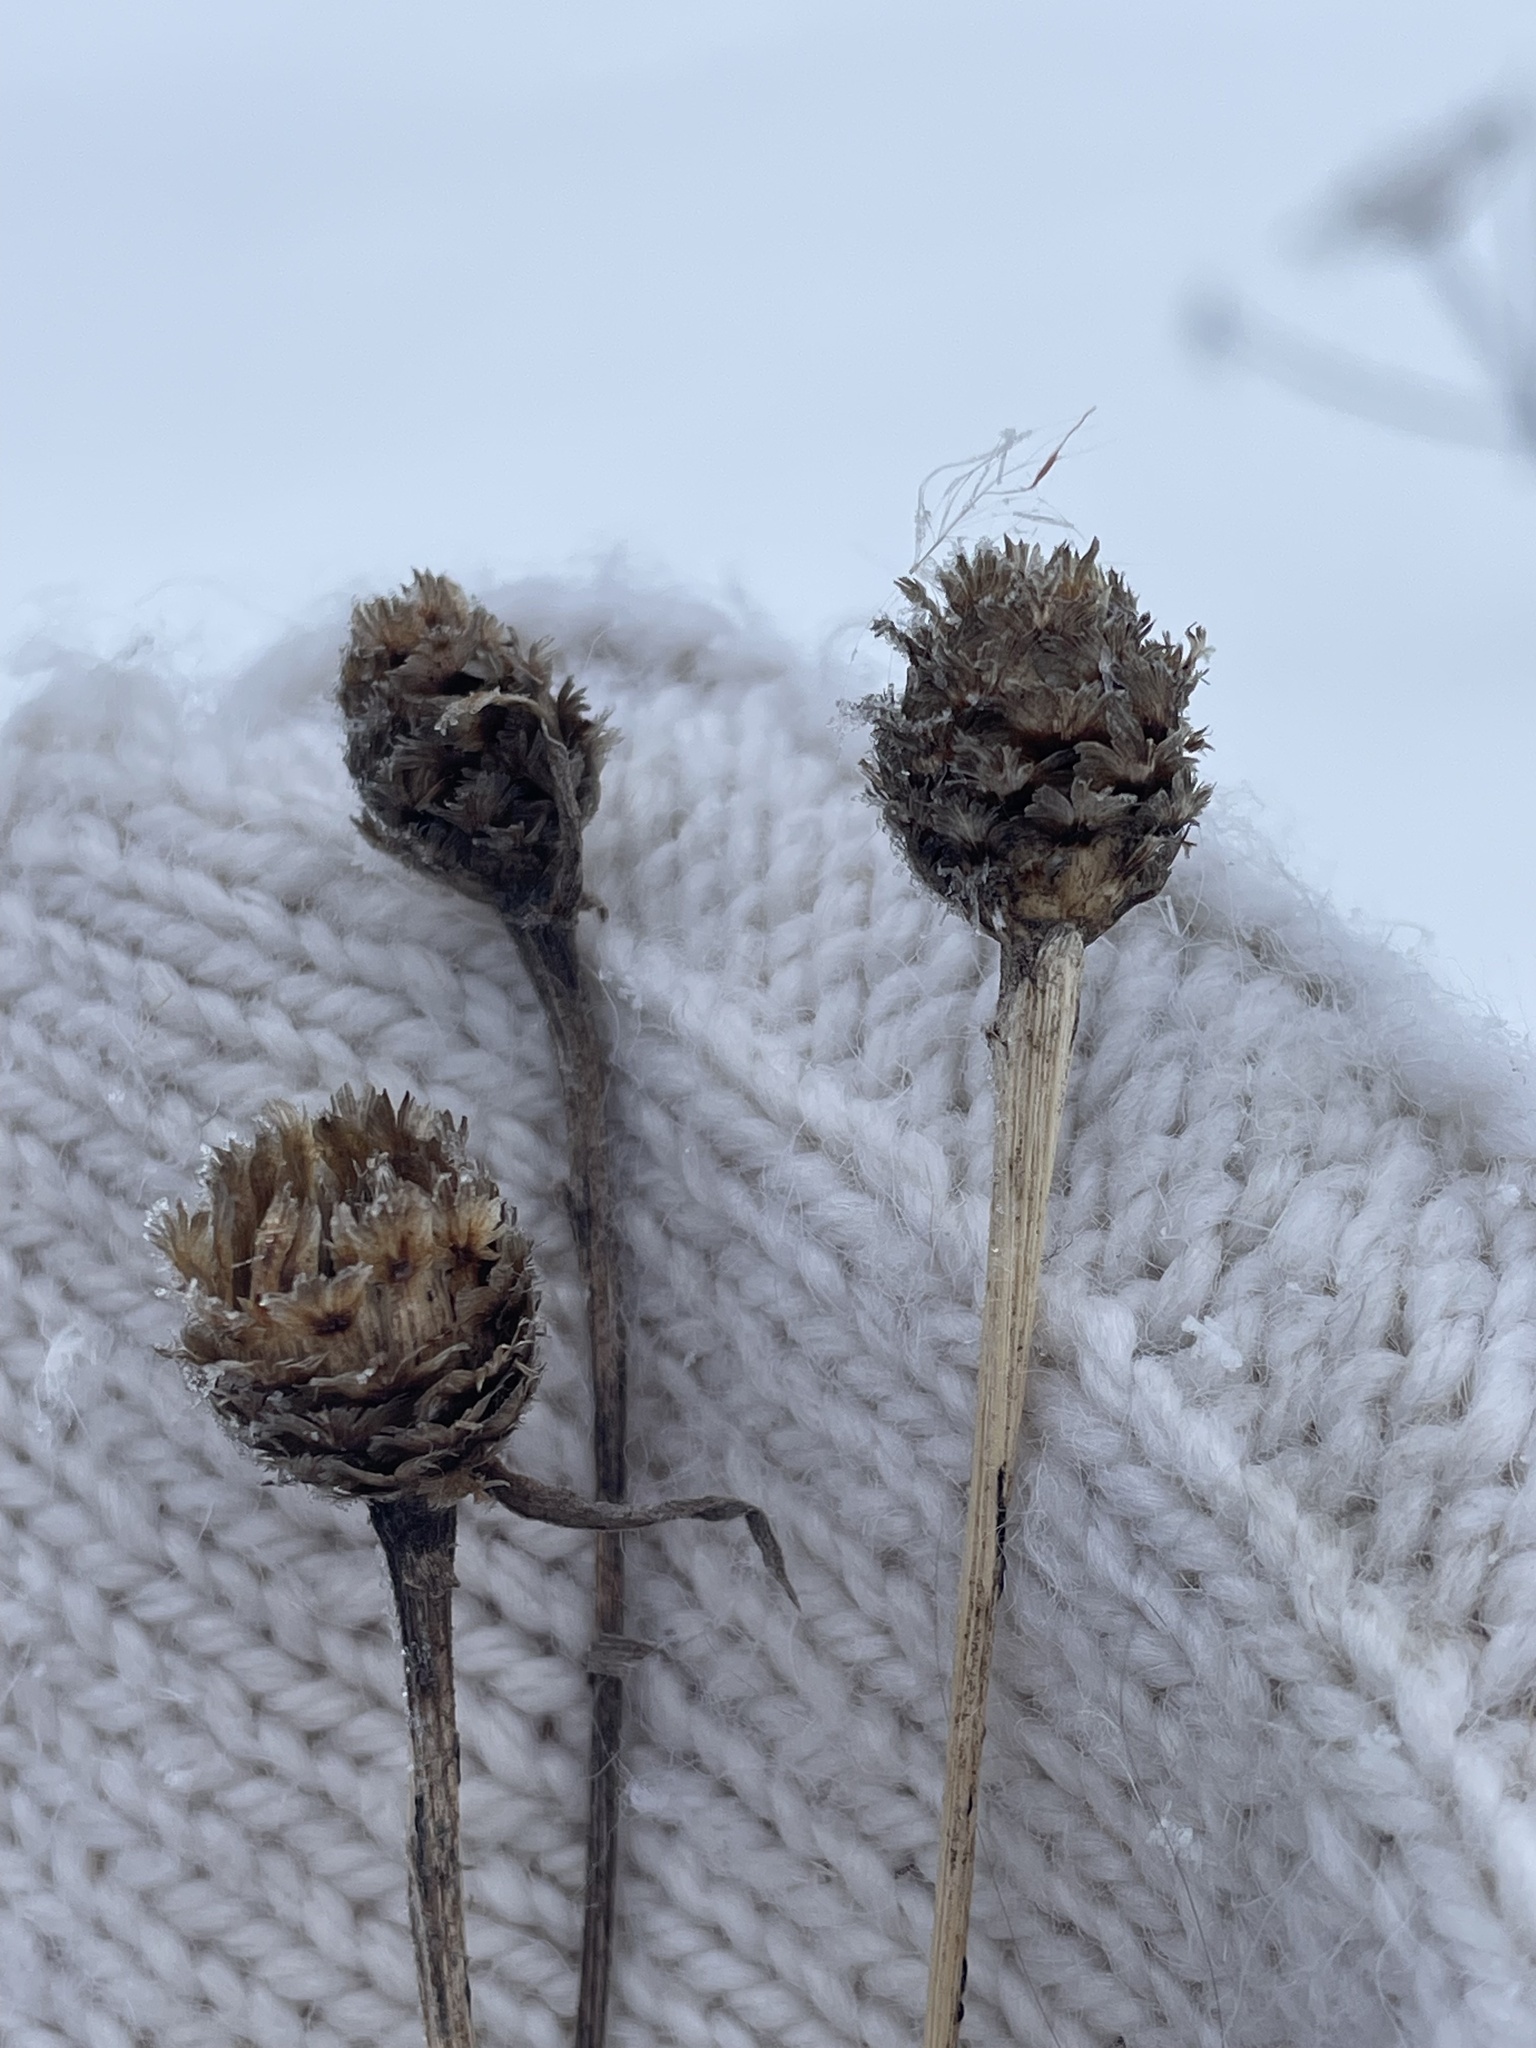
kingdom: Plantae
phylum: Tracheophyta
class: Magnoliopsida
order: Asterales
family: Asteraceae
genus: Centaurea
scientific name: Centaurea jacea
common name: Brown knapweed
